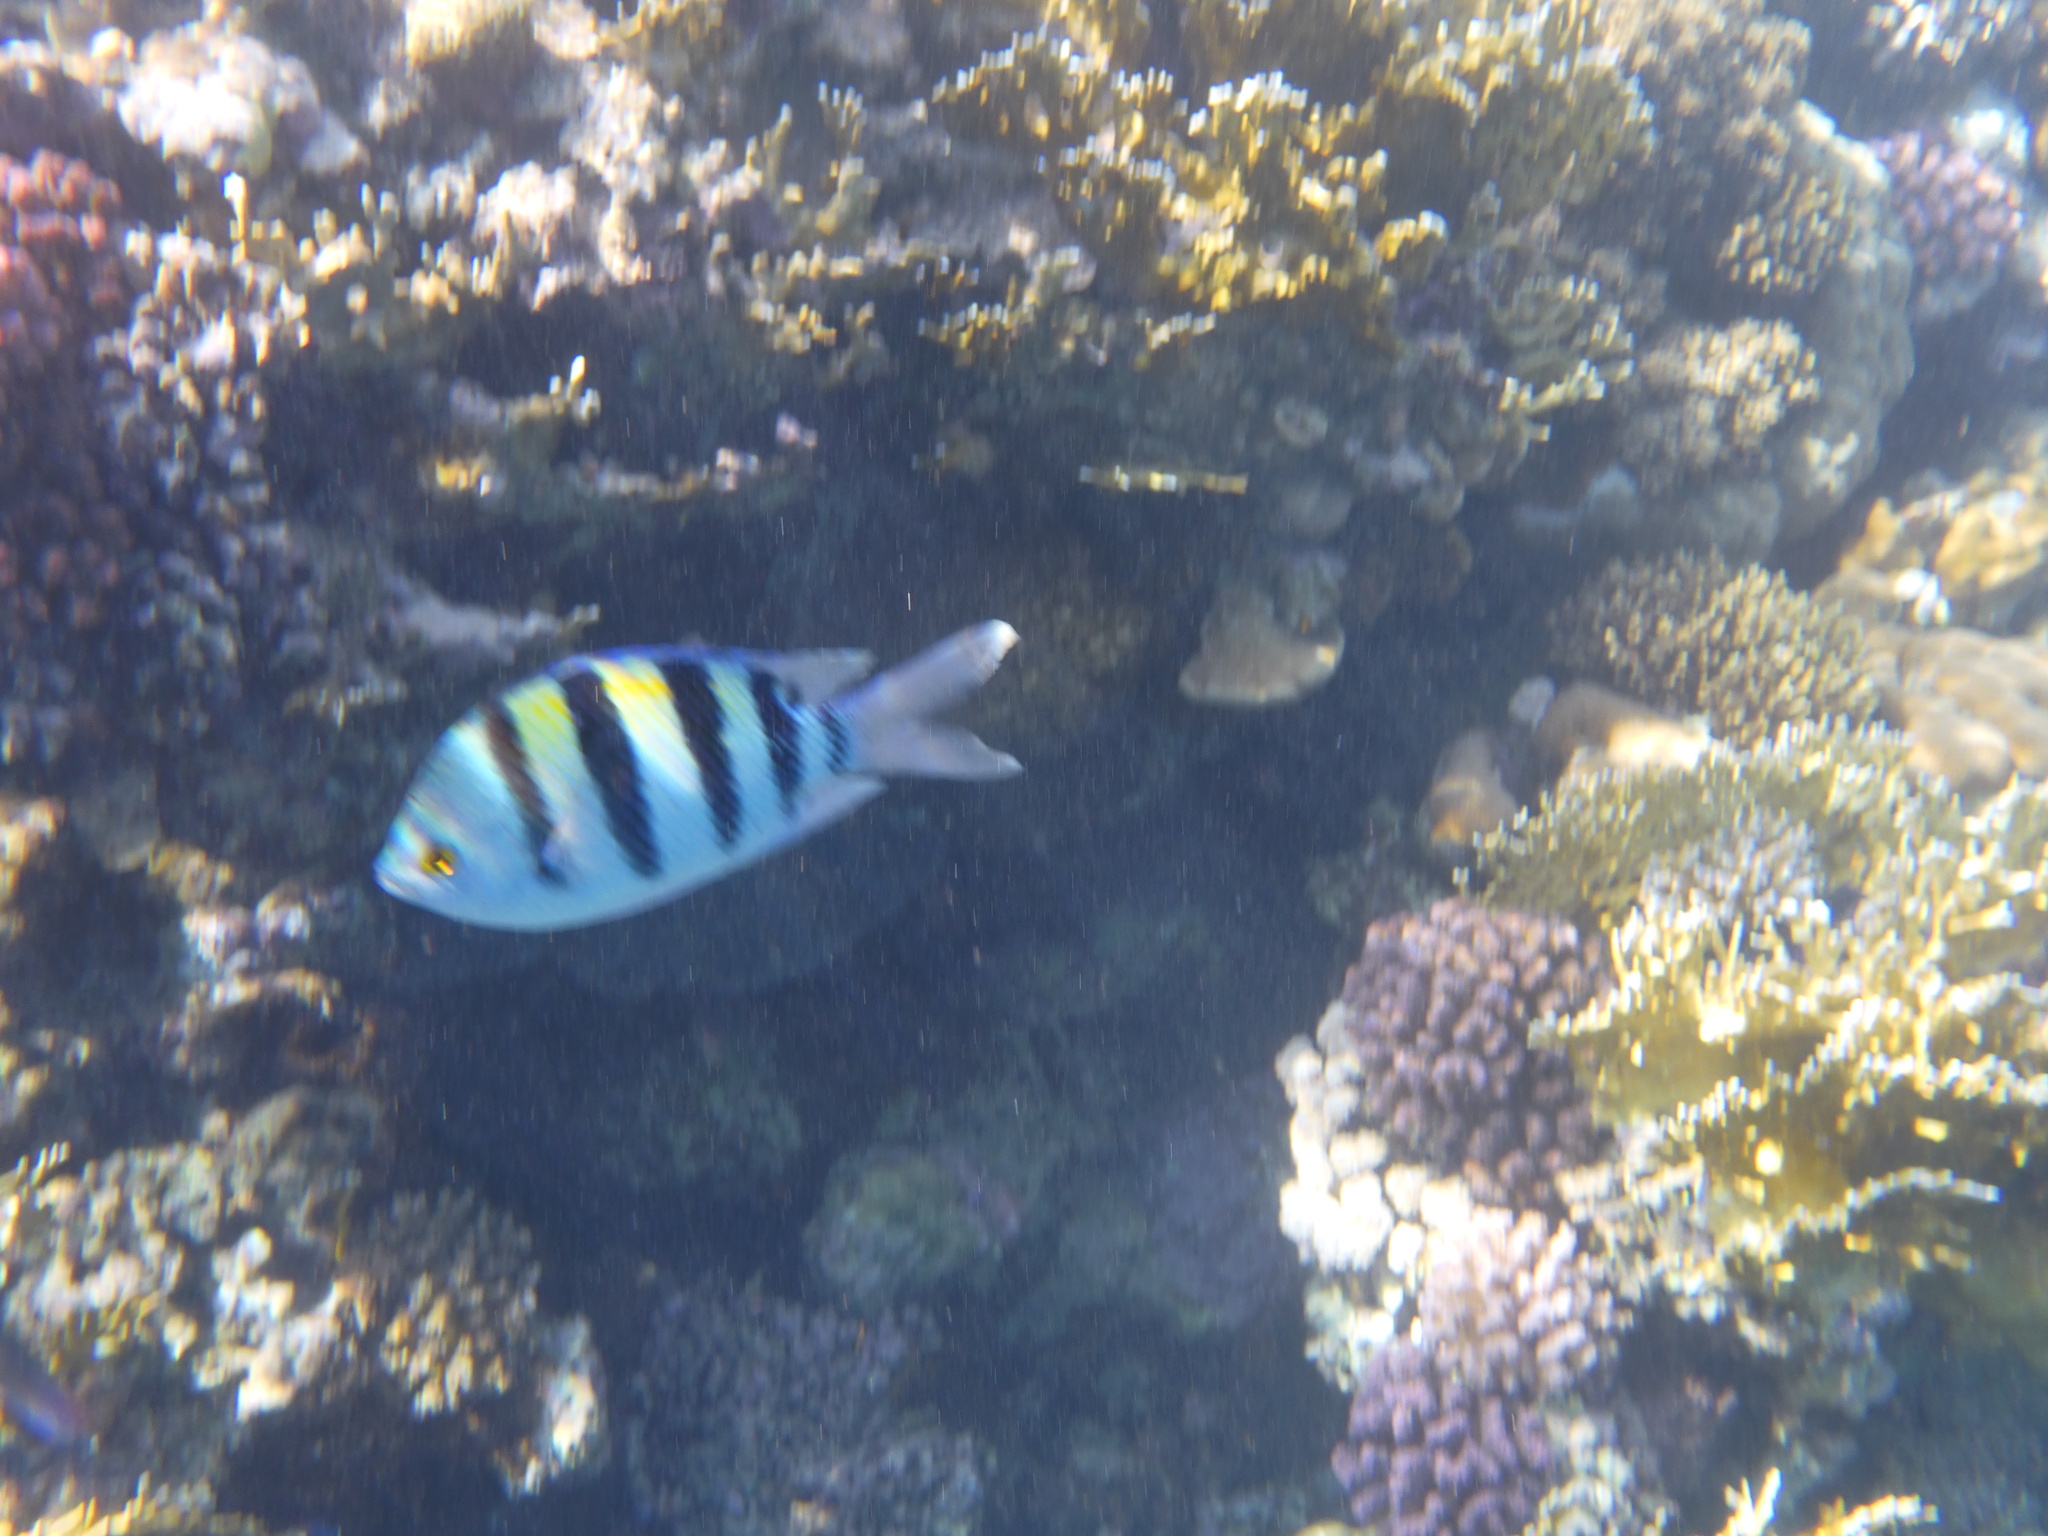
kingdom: Animalia
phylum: Chordata
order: Perciformes
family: Pomacentridae
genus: Abudefduf
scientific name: Abudefduf vaigiensis
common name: Indo-pacific sergeant
